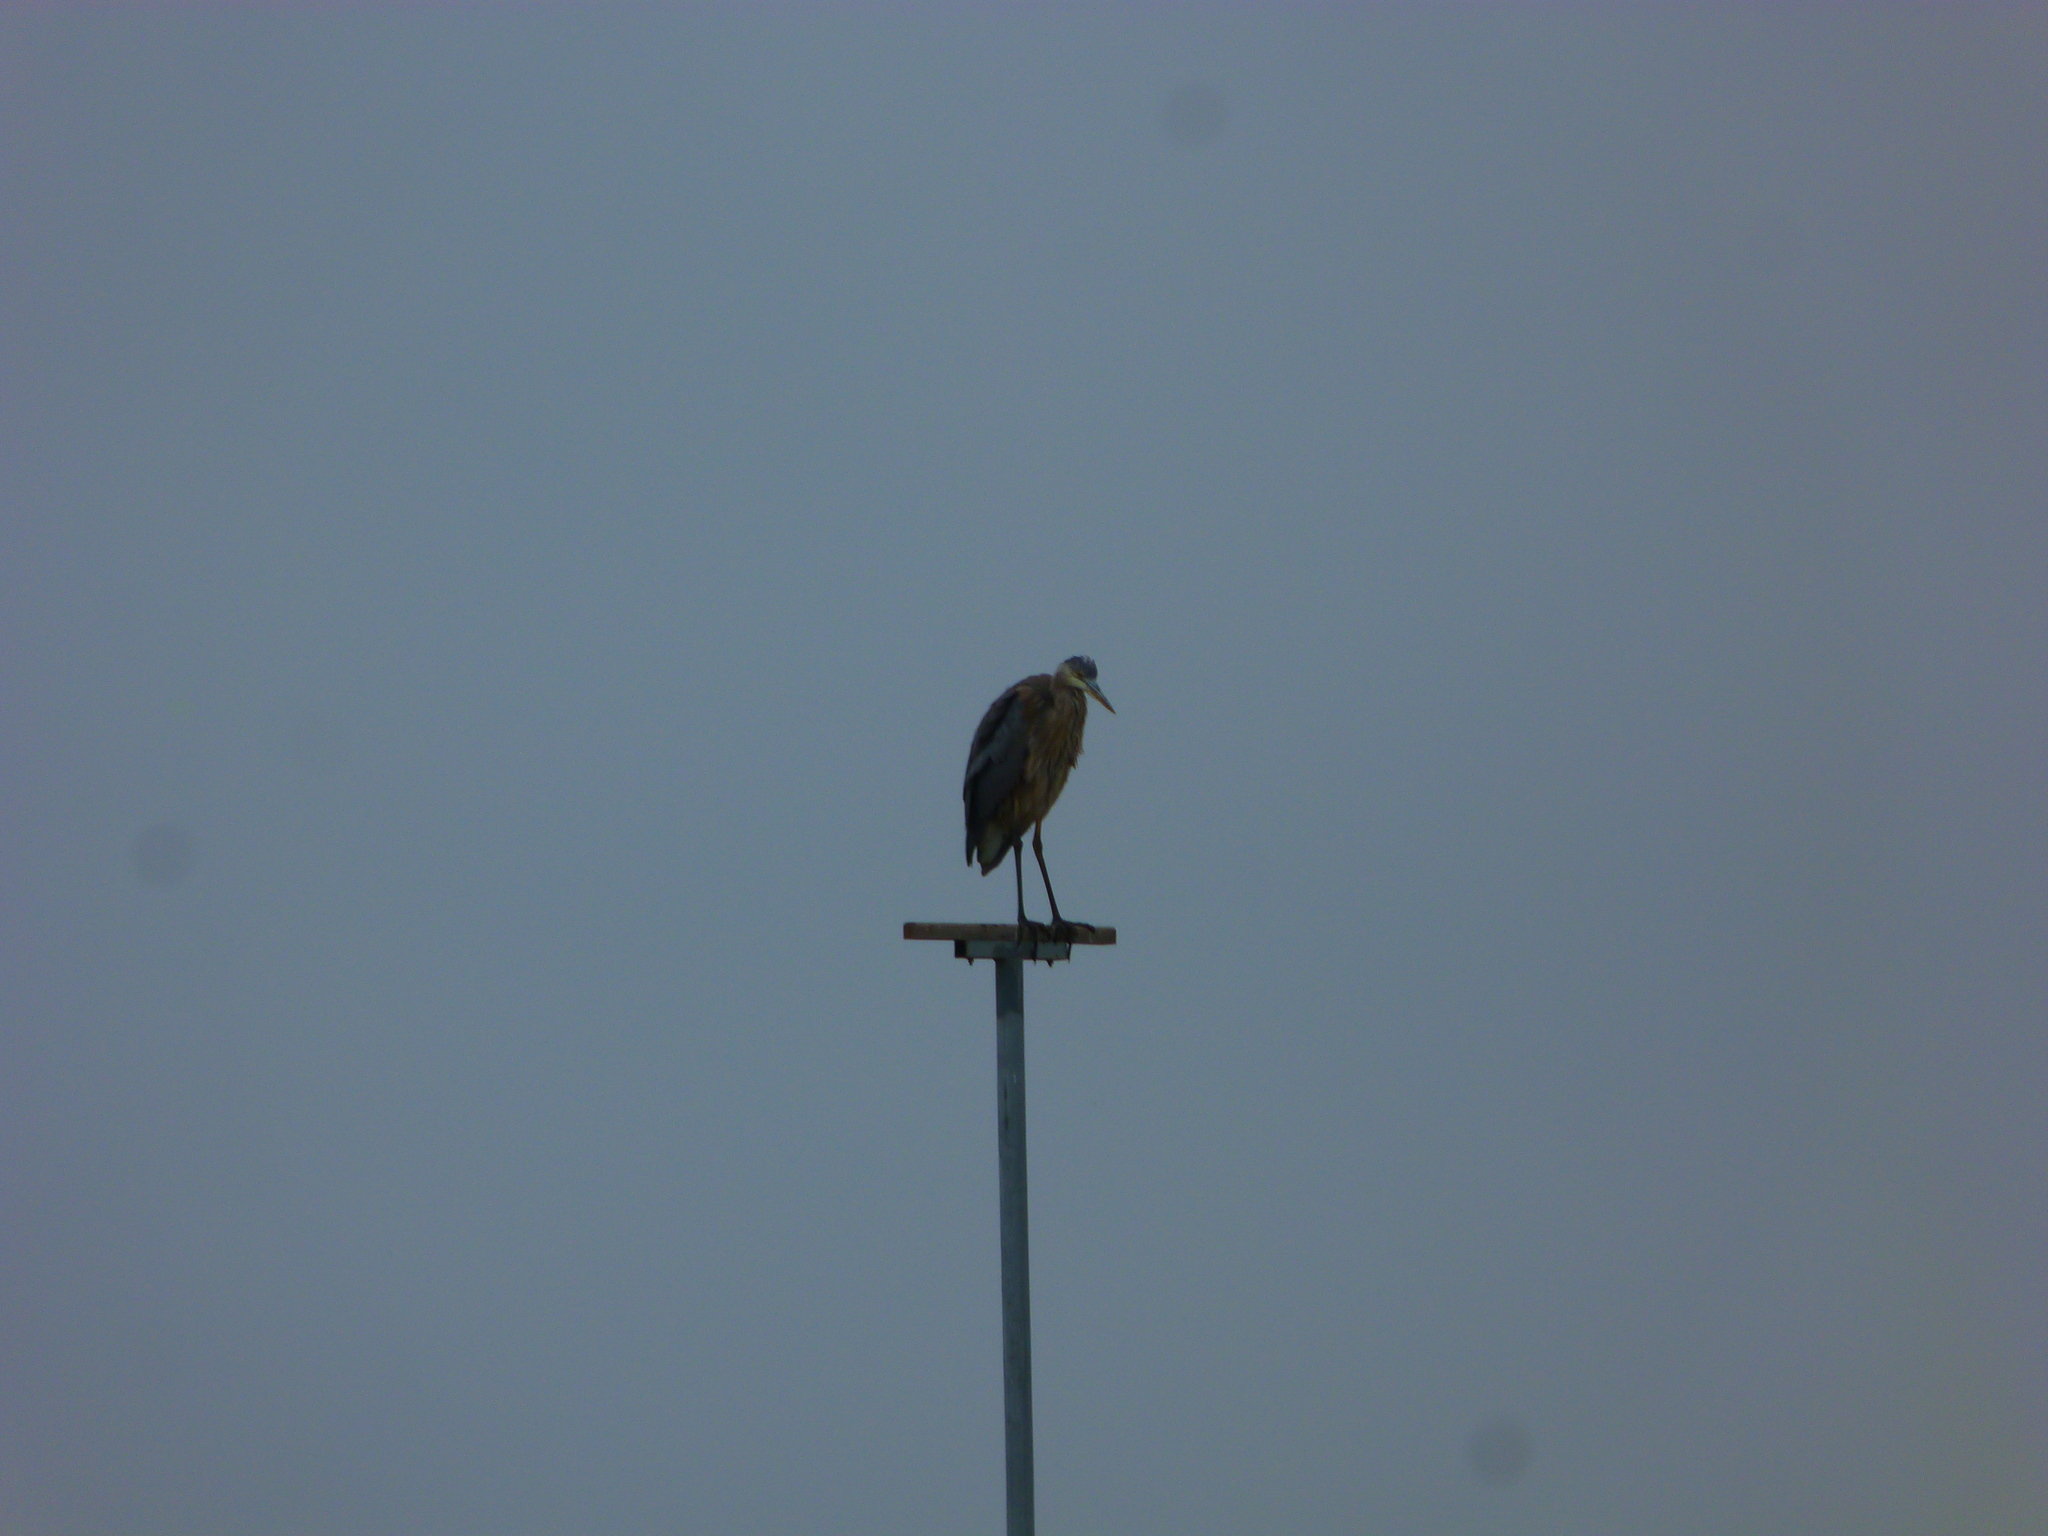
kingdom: Animalia
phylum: Chordata
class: Aves
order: Pelecaniformes
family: Ardeidae
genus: Ardea
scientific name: Ardea herodias
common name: Great blue heron
